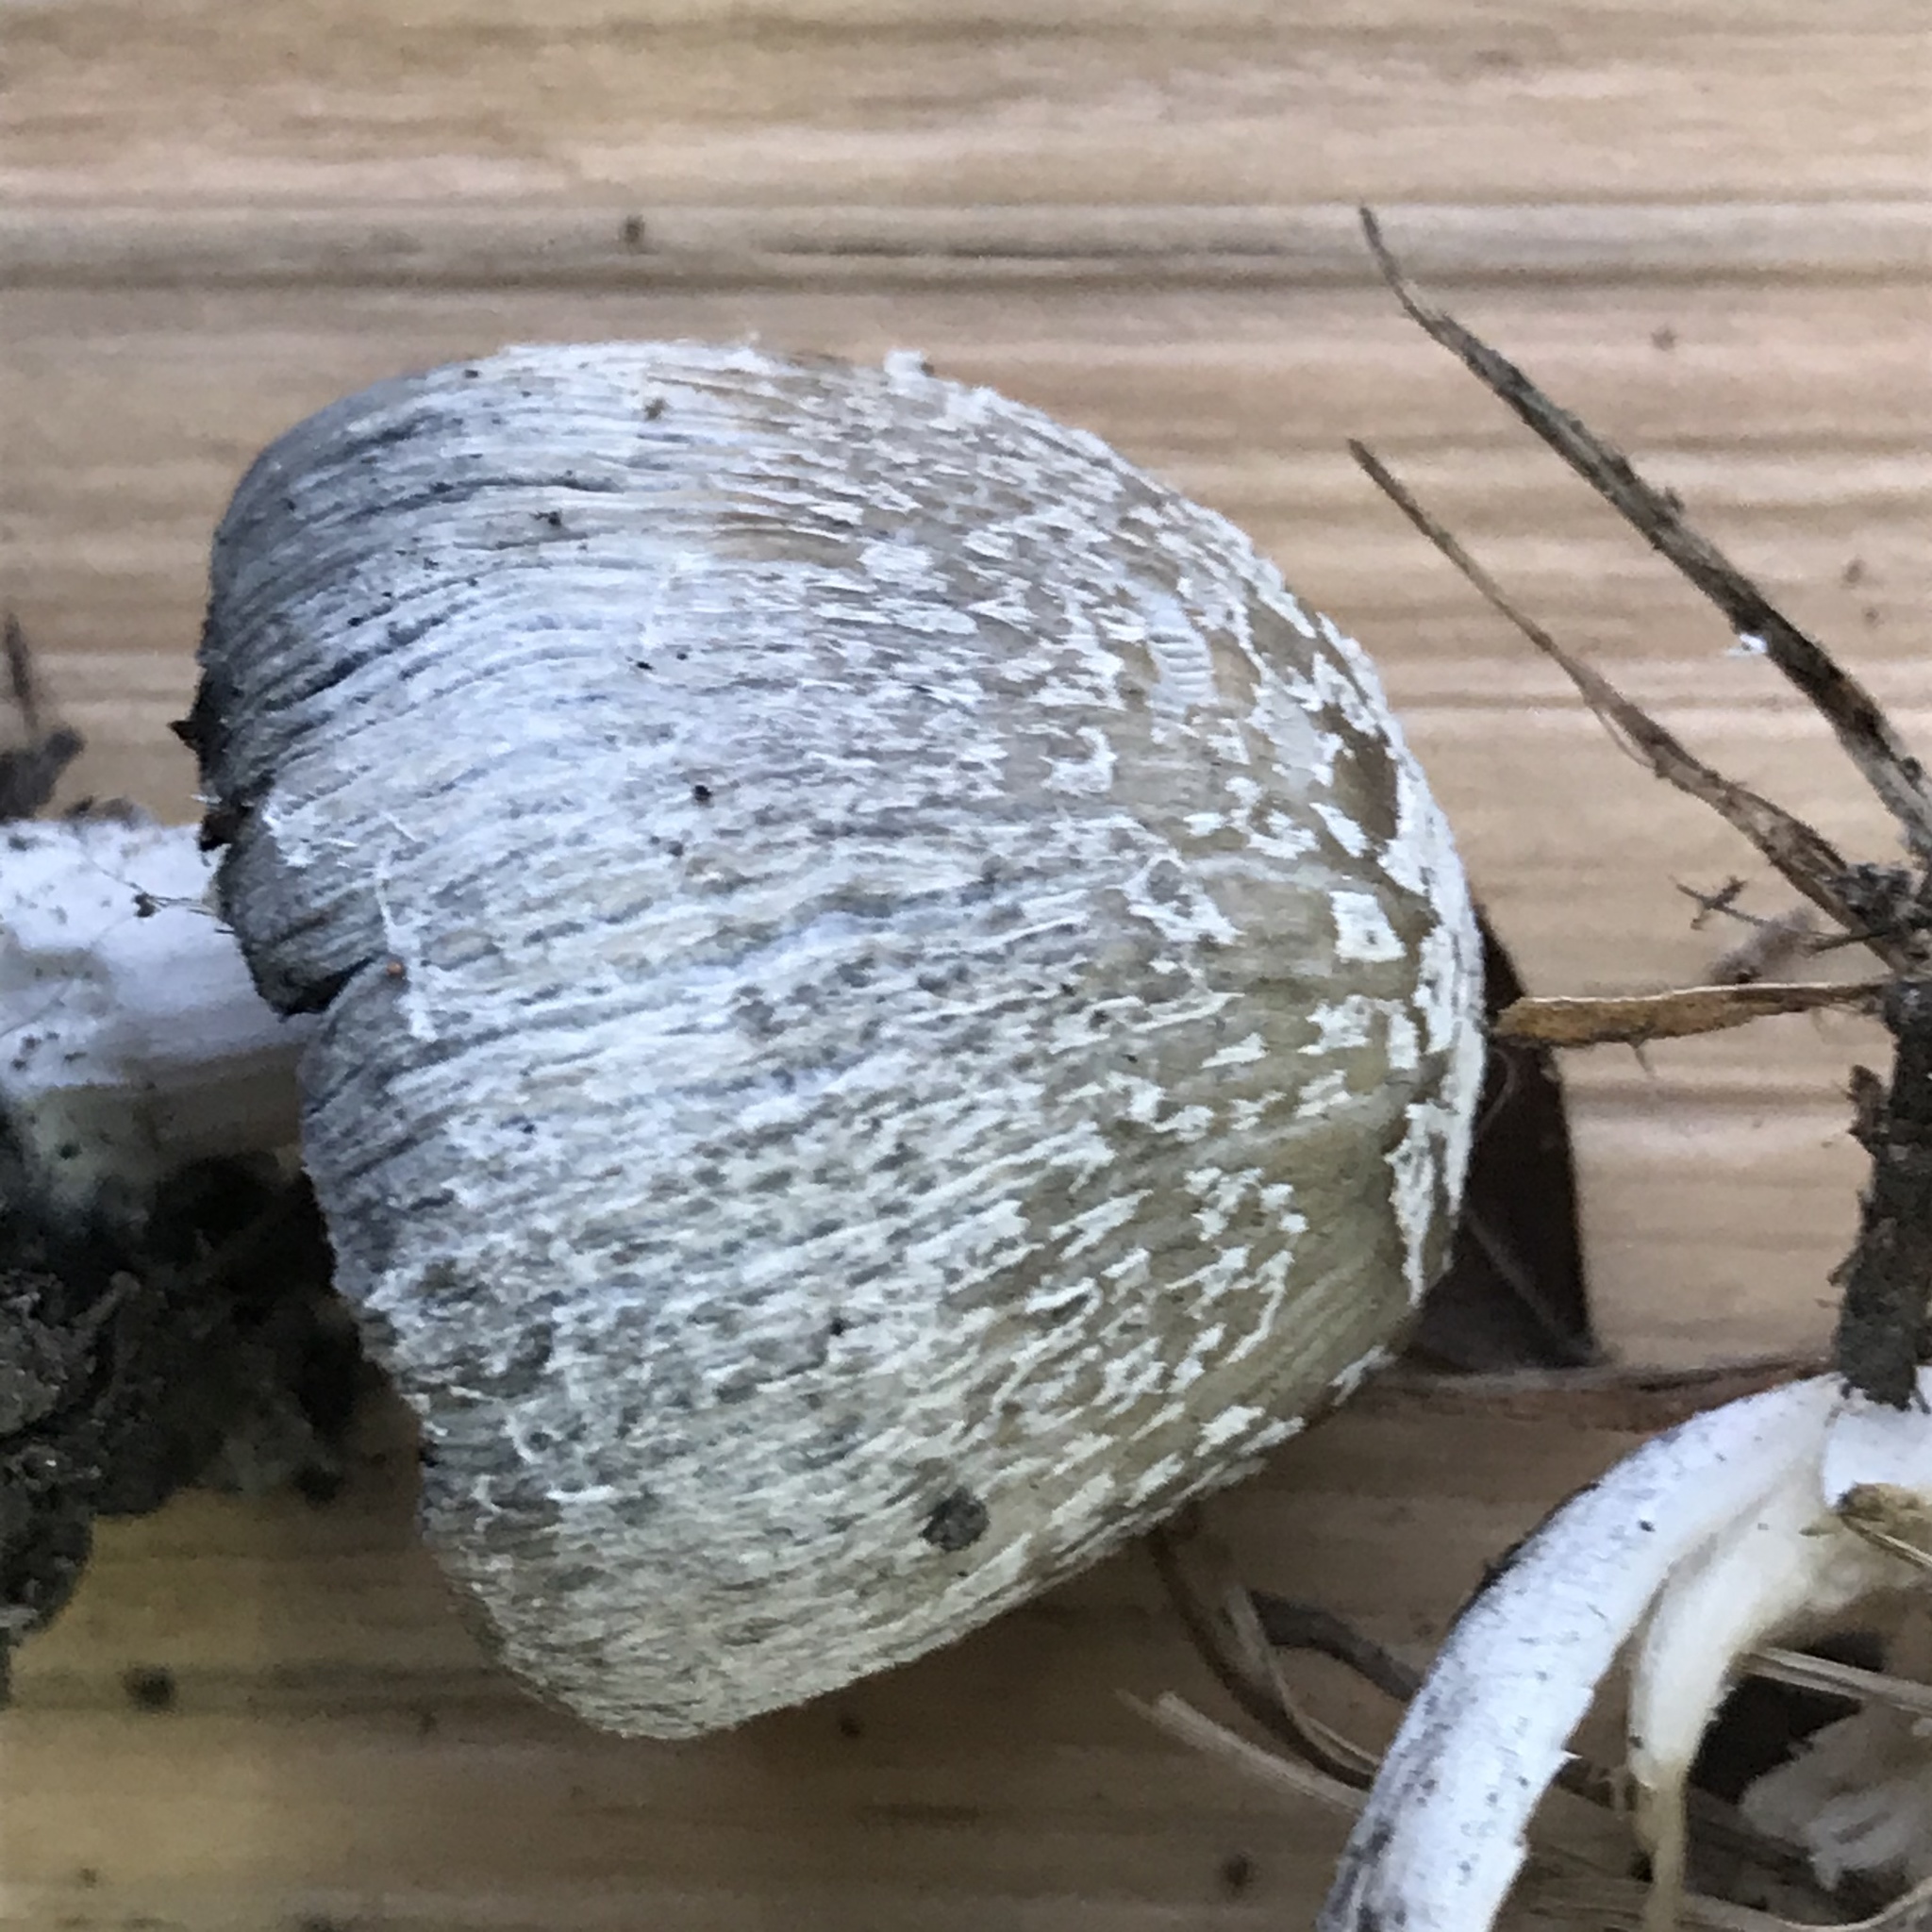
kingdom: Fungi
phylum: Basidiomycota
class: Agaricomycetes
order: Agaricales
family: Psathyrellaceae
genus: Coprinellus
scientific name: Coprinellus flocculosus
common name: Flocculose inkcap
